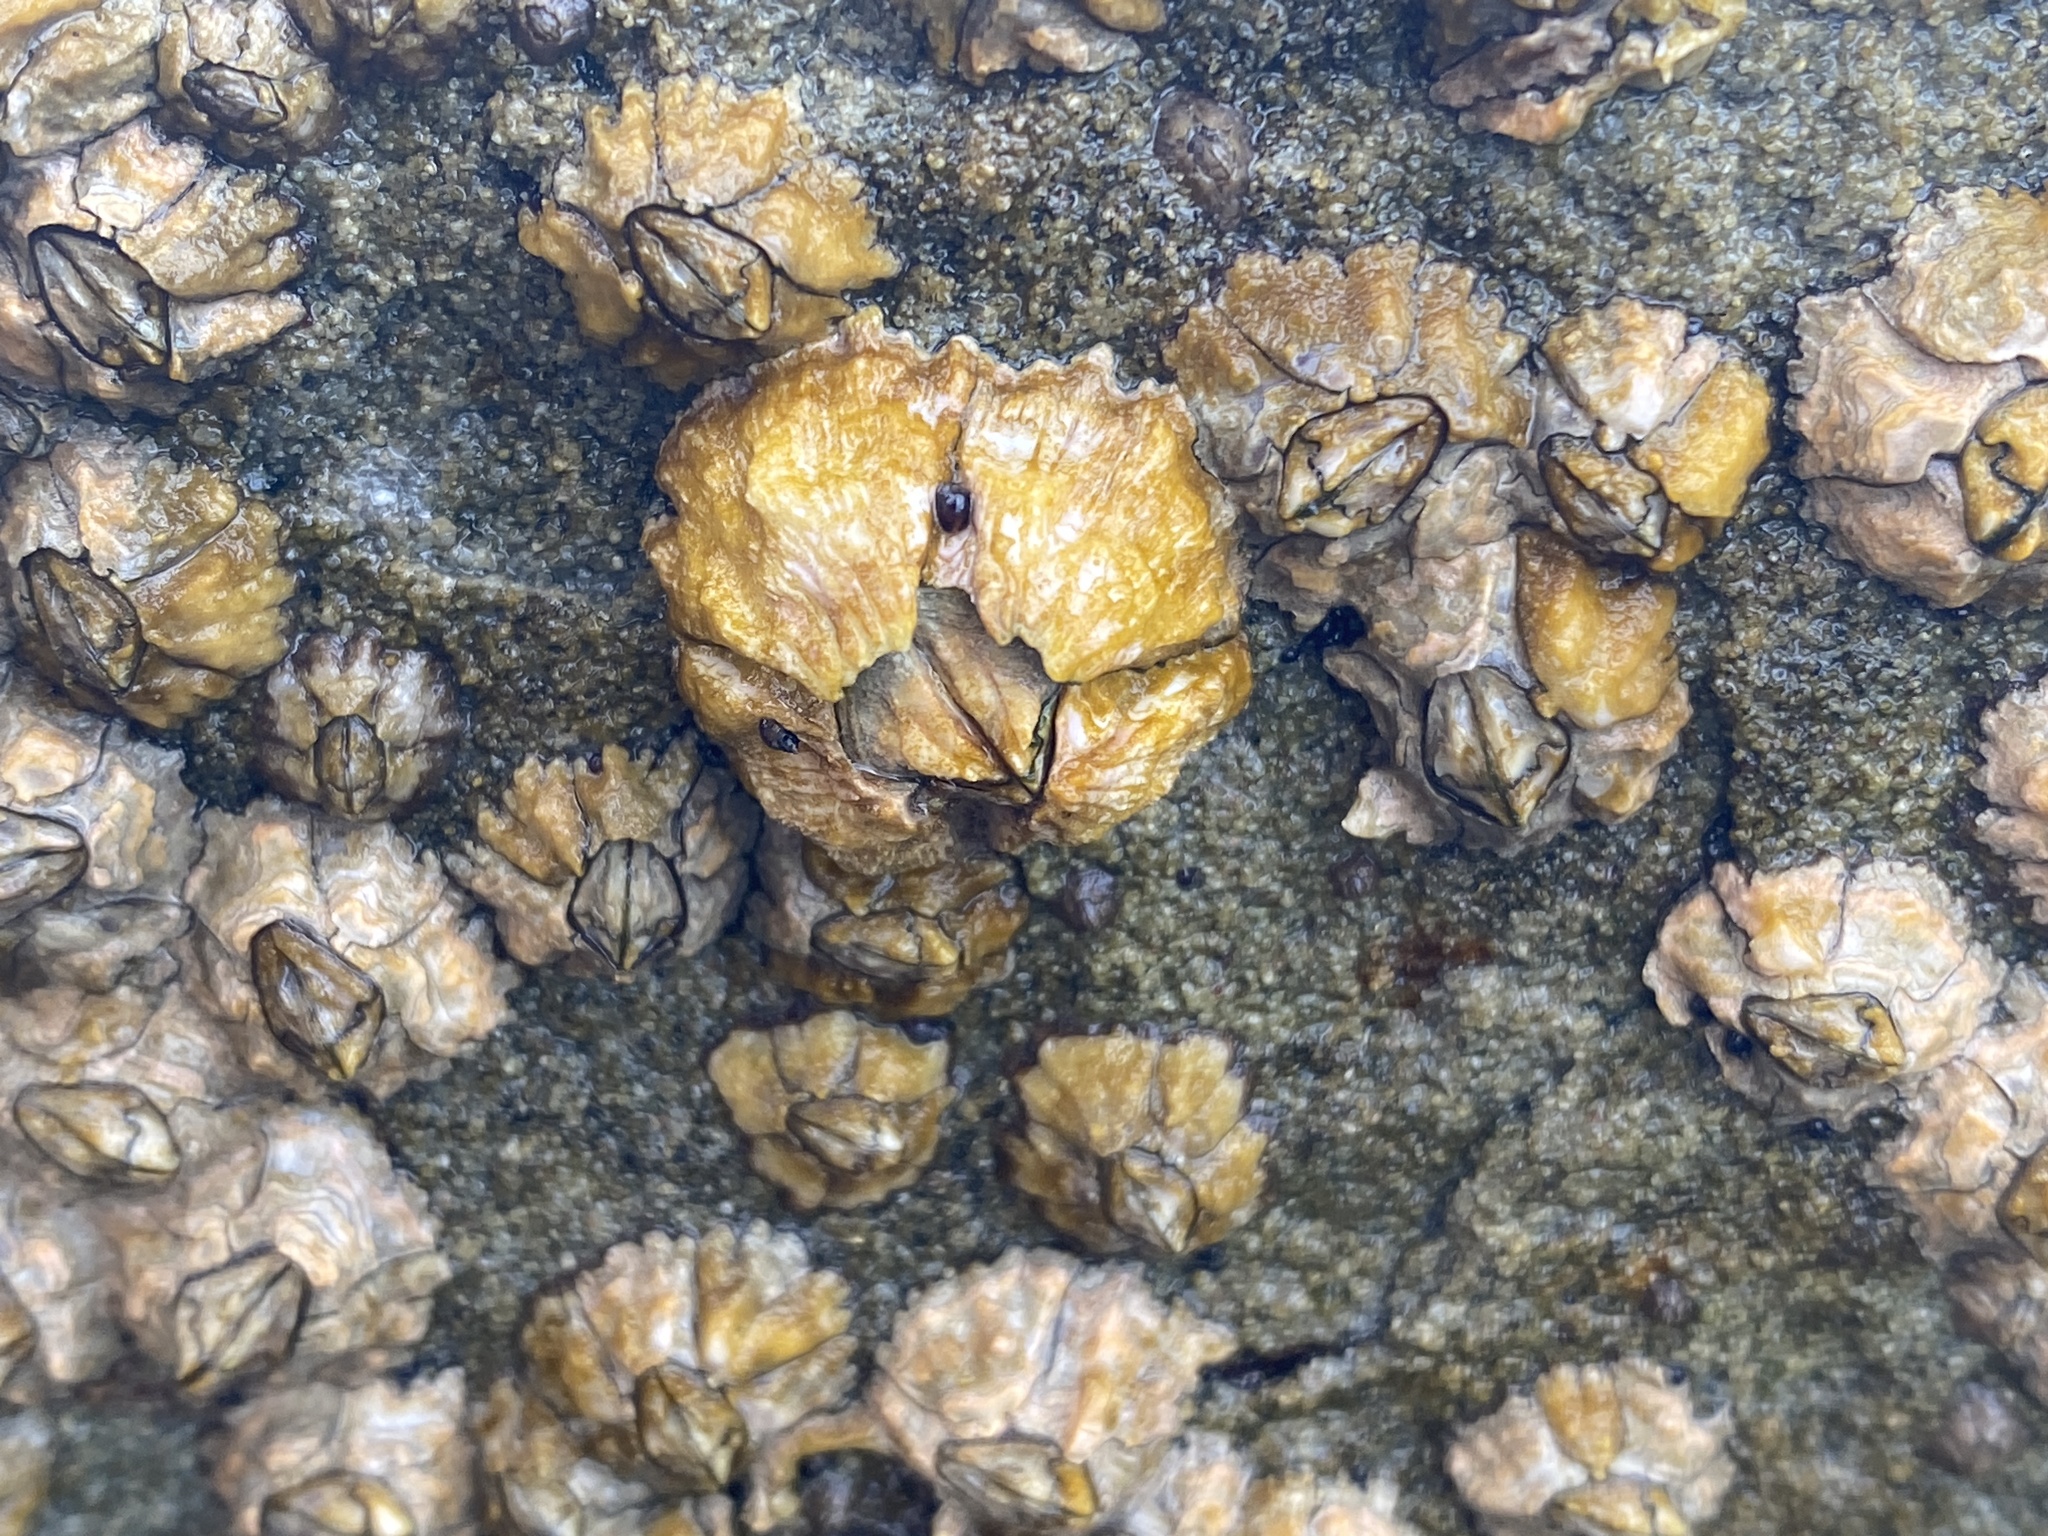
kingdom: Animalia
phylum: Arthropoda
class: Maxillopoda
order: Sessilia
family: Tetraclitidae
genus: Tesseropora
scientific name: Tesseropora rosea
